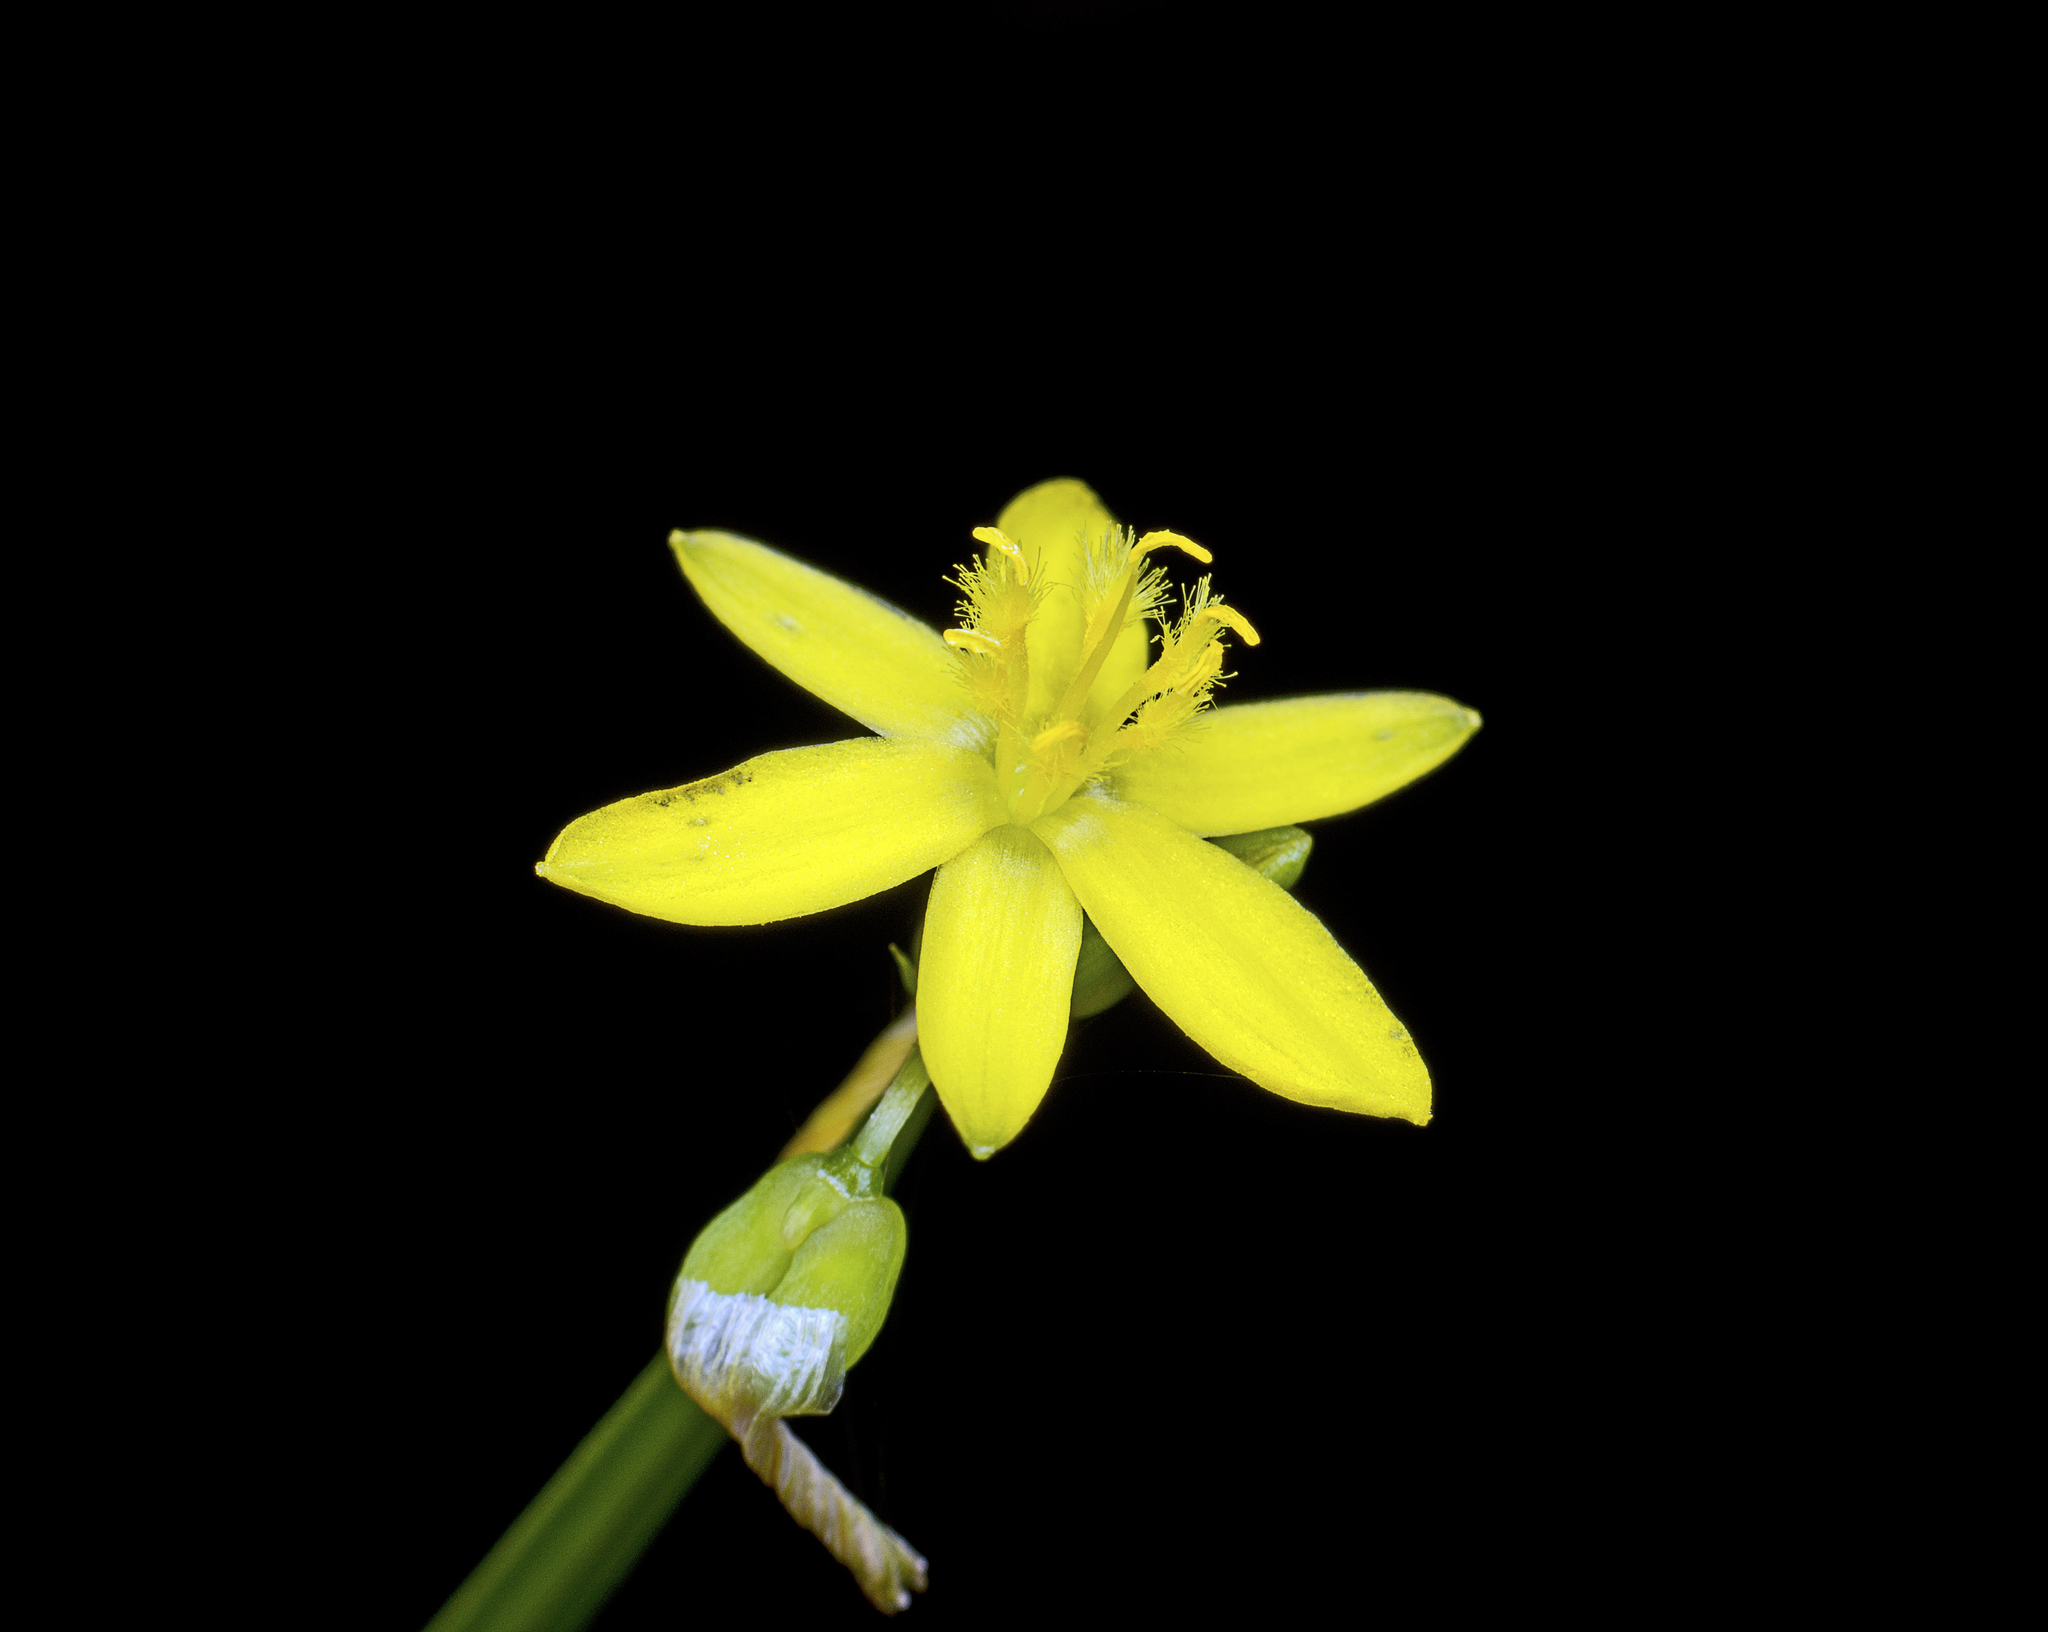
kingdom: Plantae
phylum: Tracheophyta
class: Liliopsida
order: Asparagales
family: Asphodelaceae
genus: Tricoryne
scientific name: Tricoryne anceps
